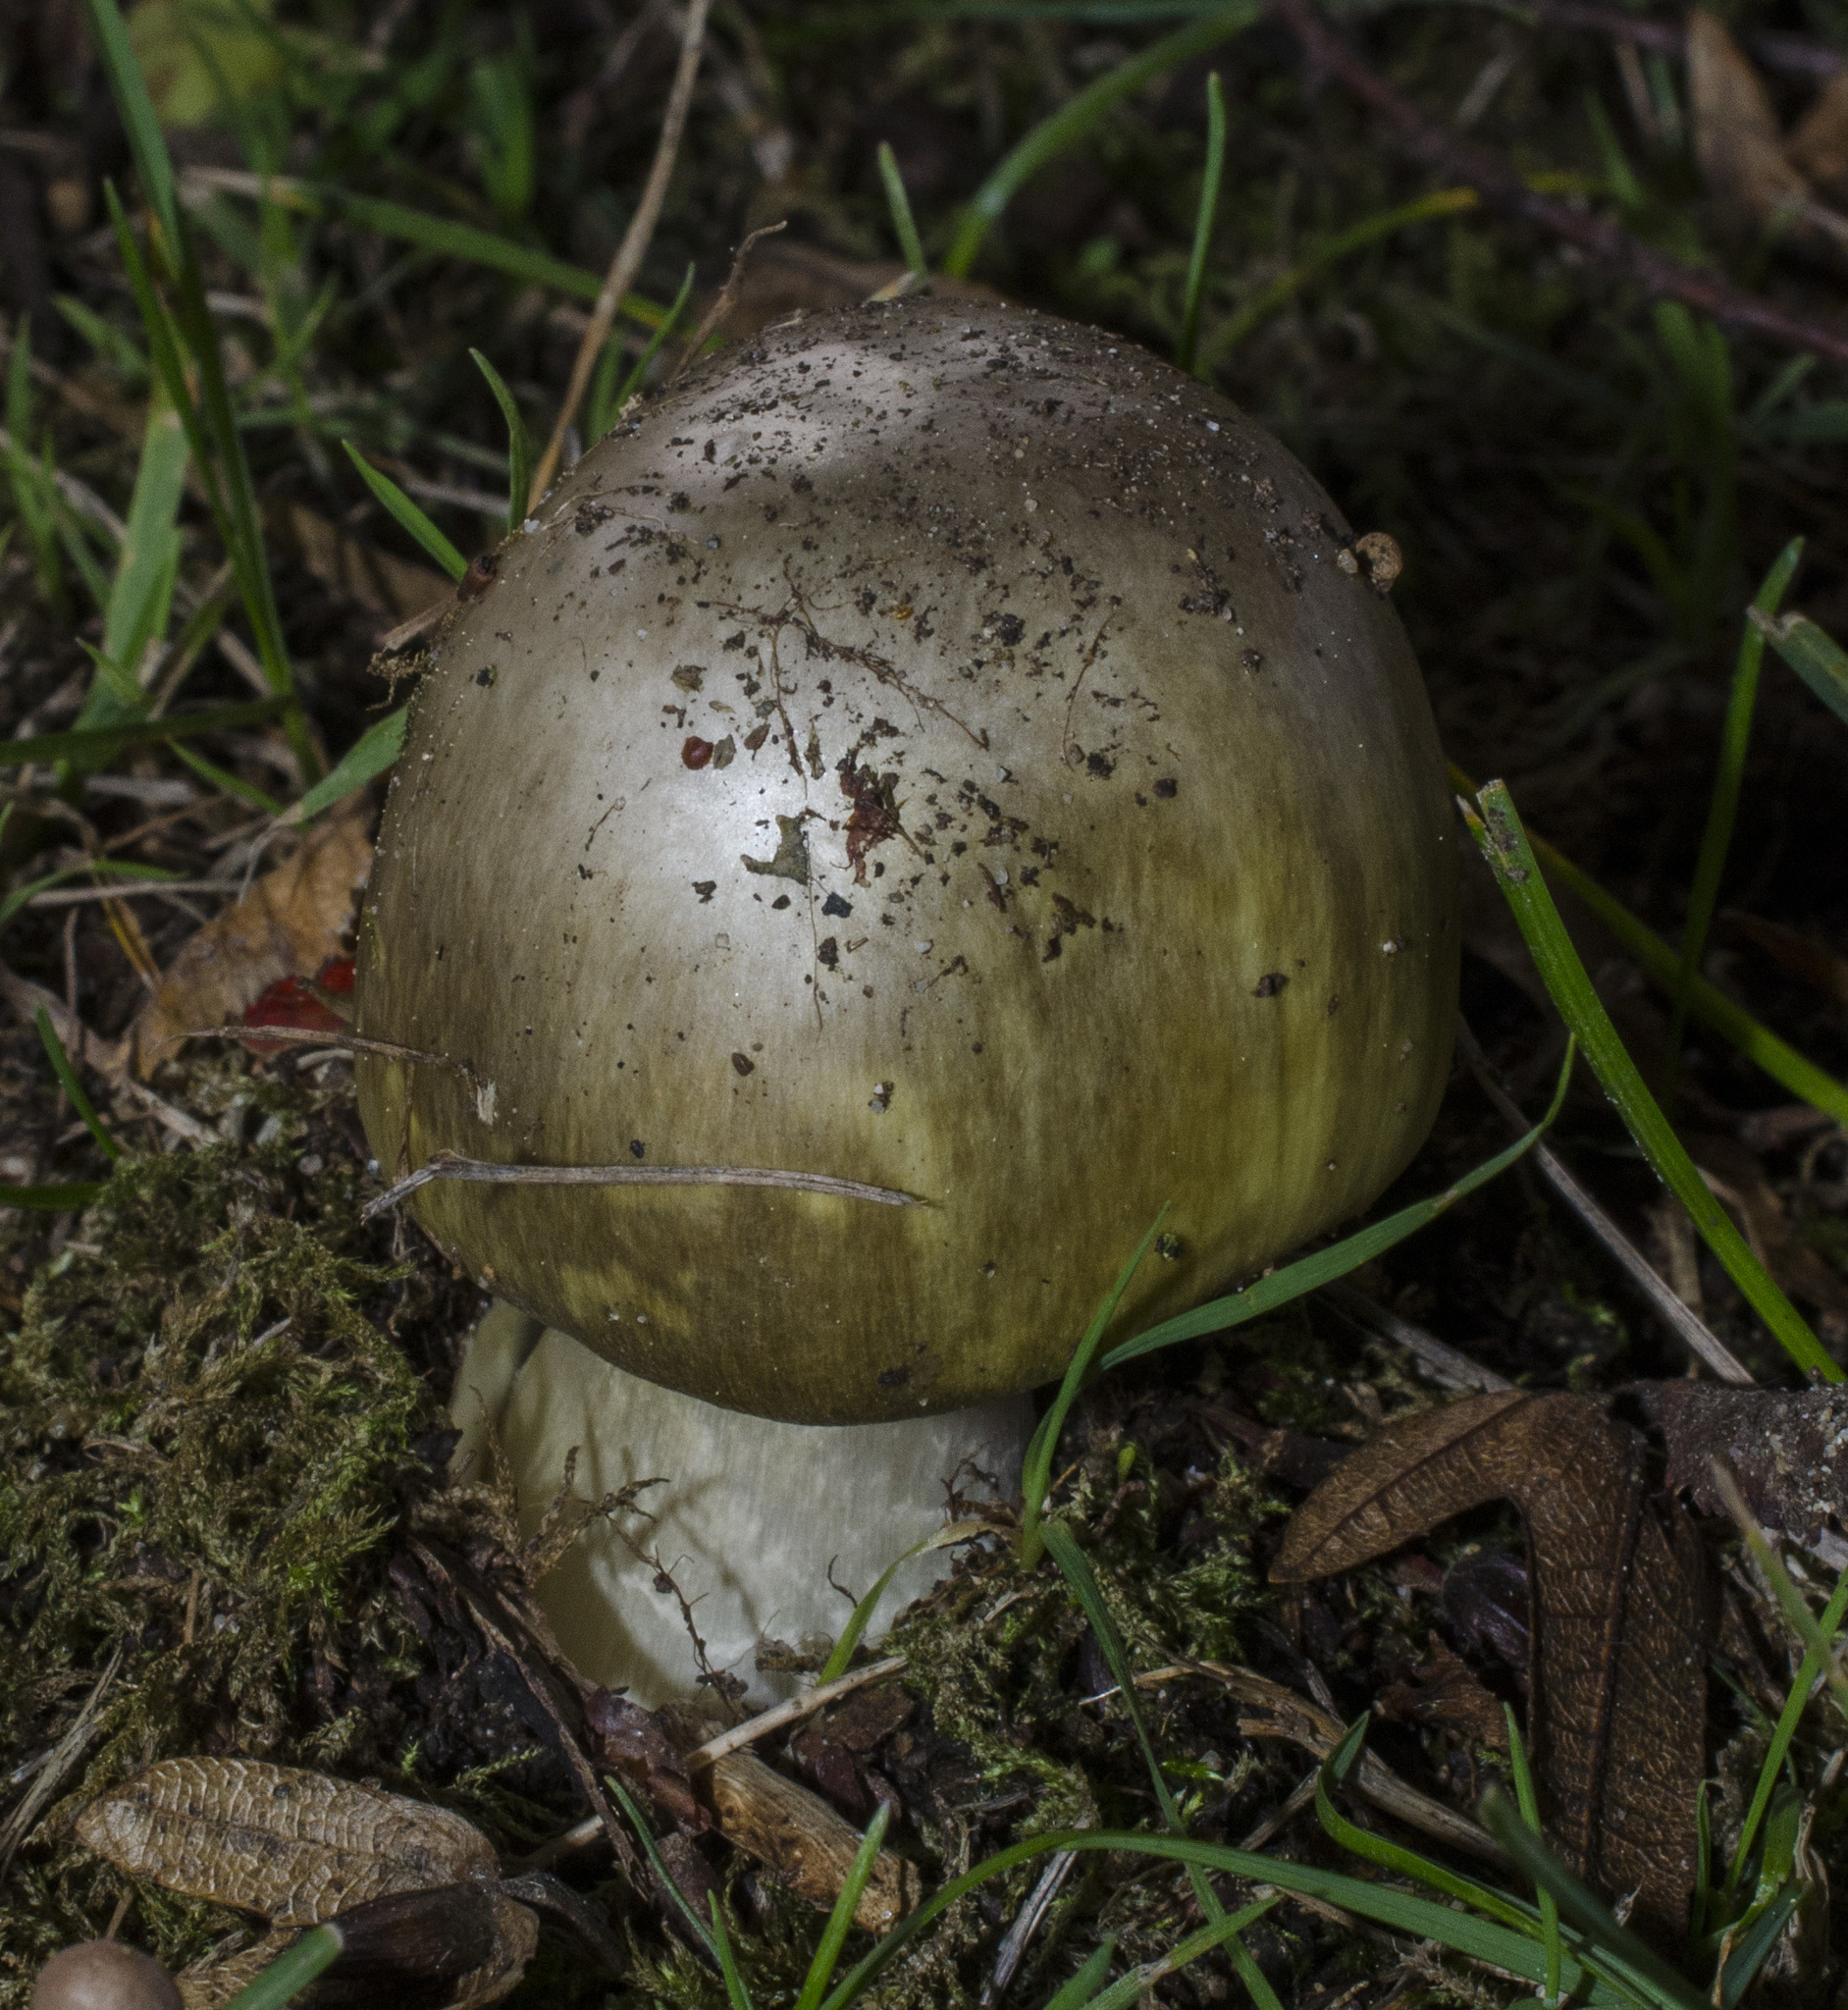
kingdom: Fungi
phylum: Basidiomycota
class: Agaricomycetes
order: Agaricales
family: Amanitaceae
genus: Amanita
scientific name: Amanita phalloides
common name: Death cap
